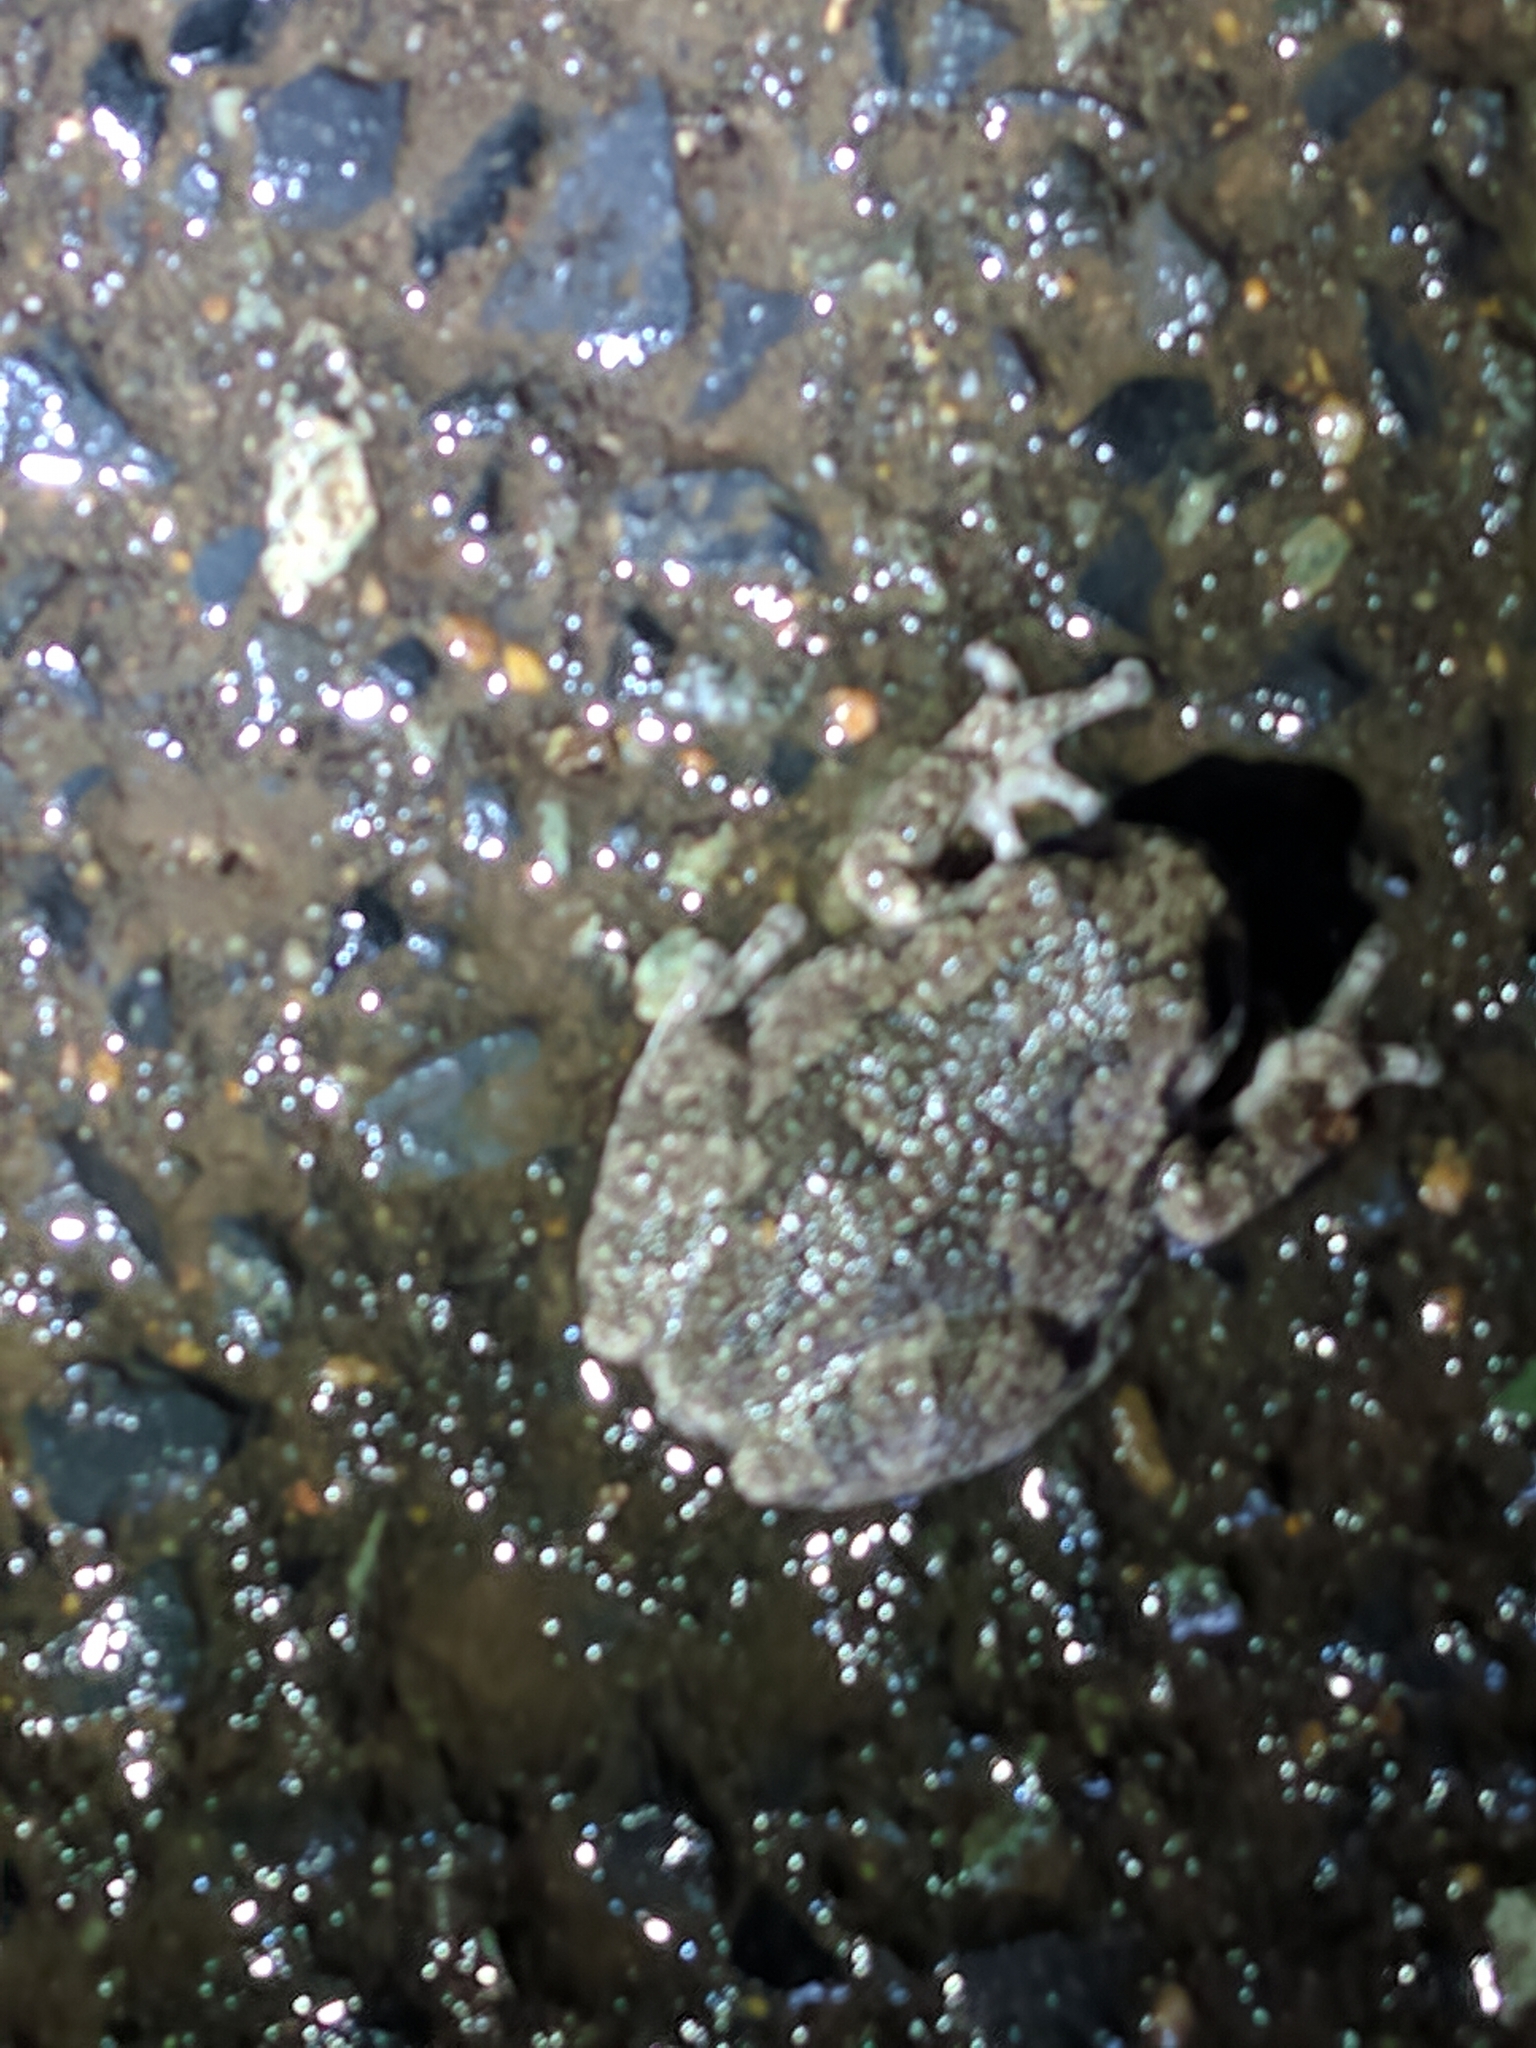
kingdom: Animalia
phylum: Chordata
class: Amphibia
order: Anura
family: Hylidae
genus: Dryophytes
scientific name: Dryophytes versicolor
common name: Gray treefrog
